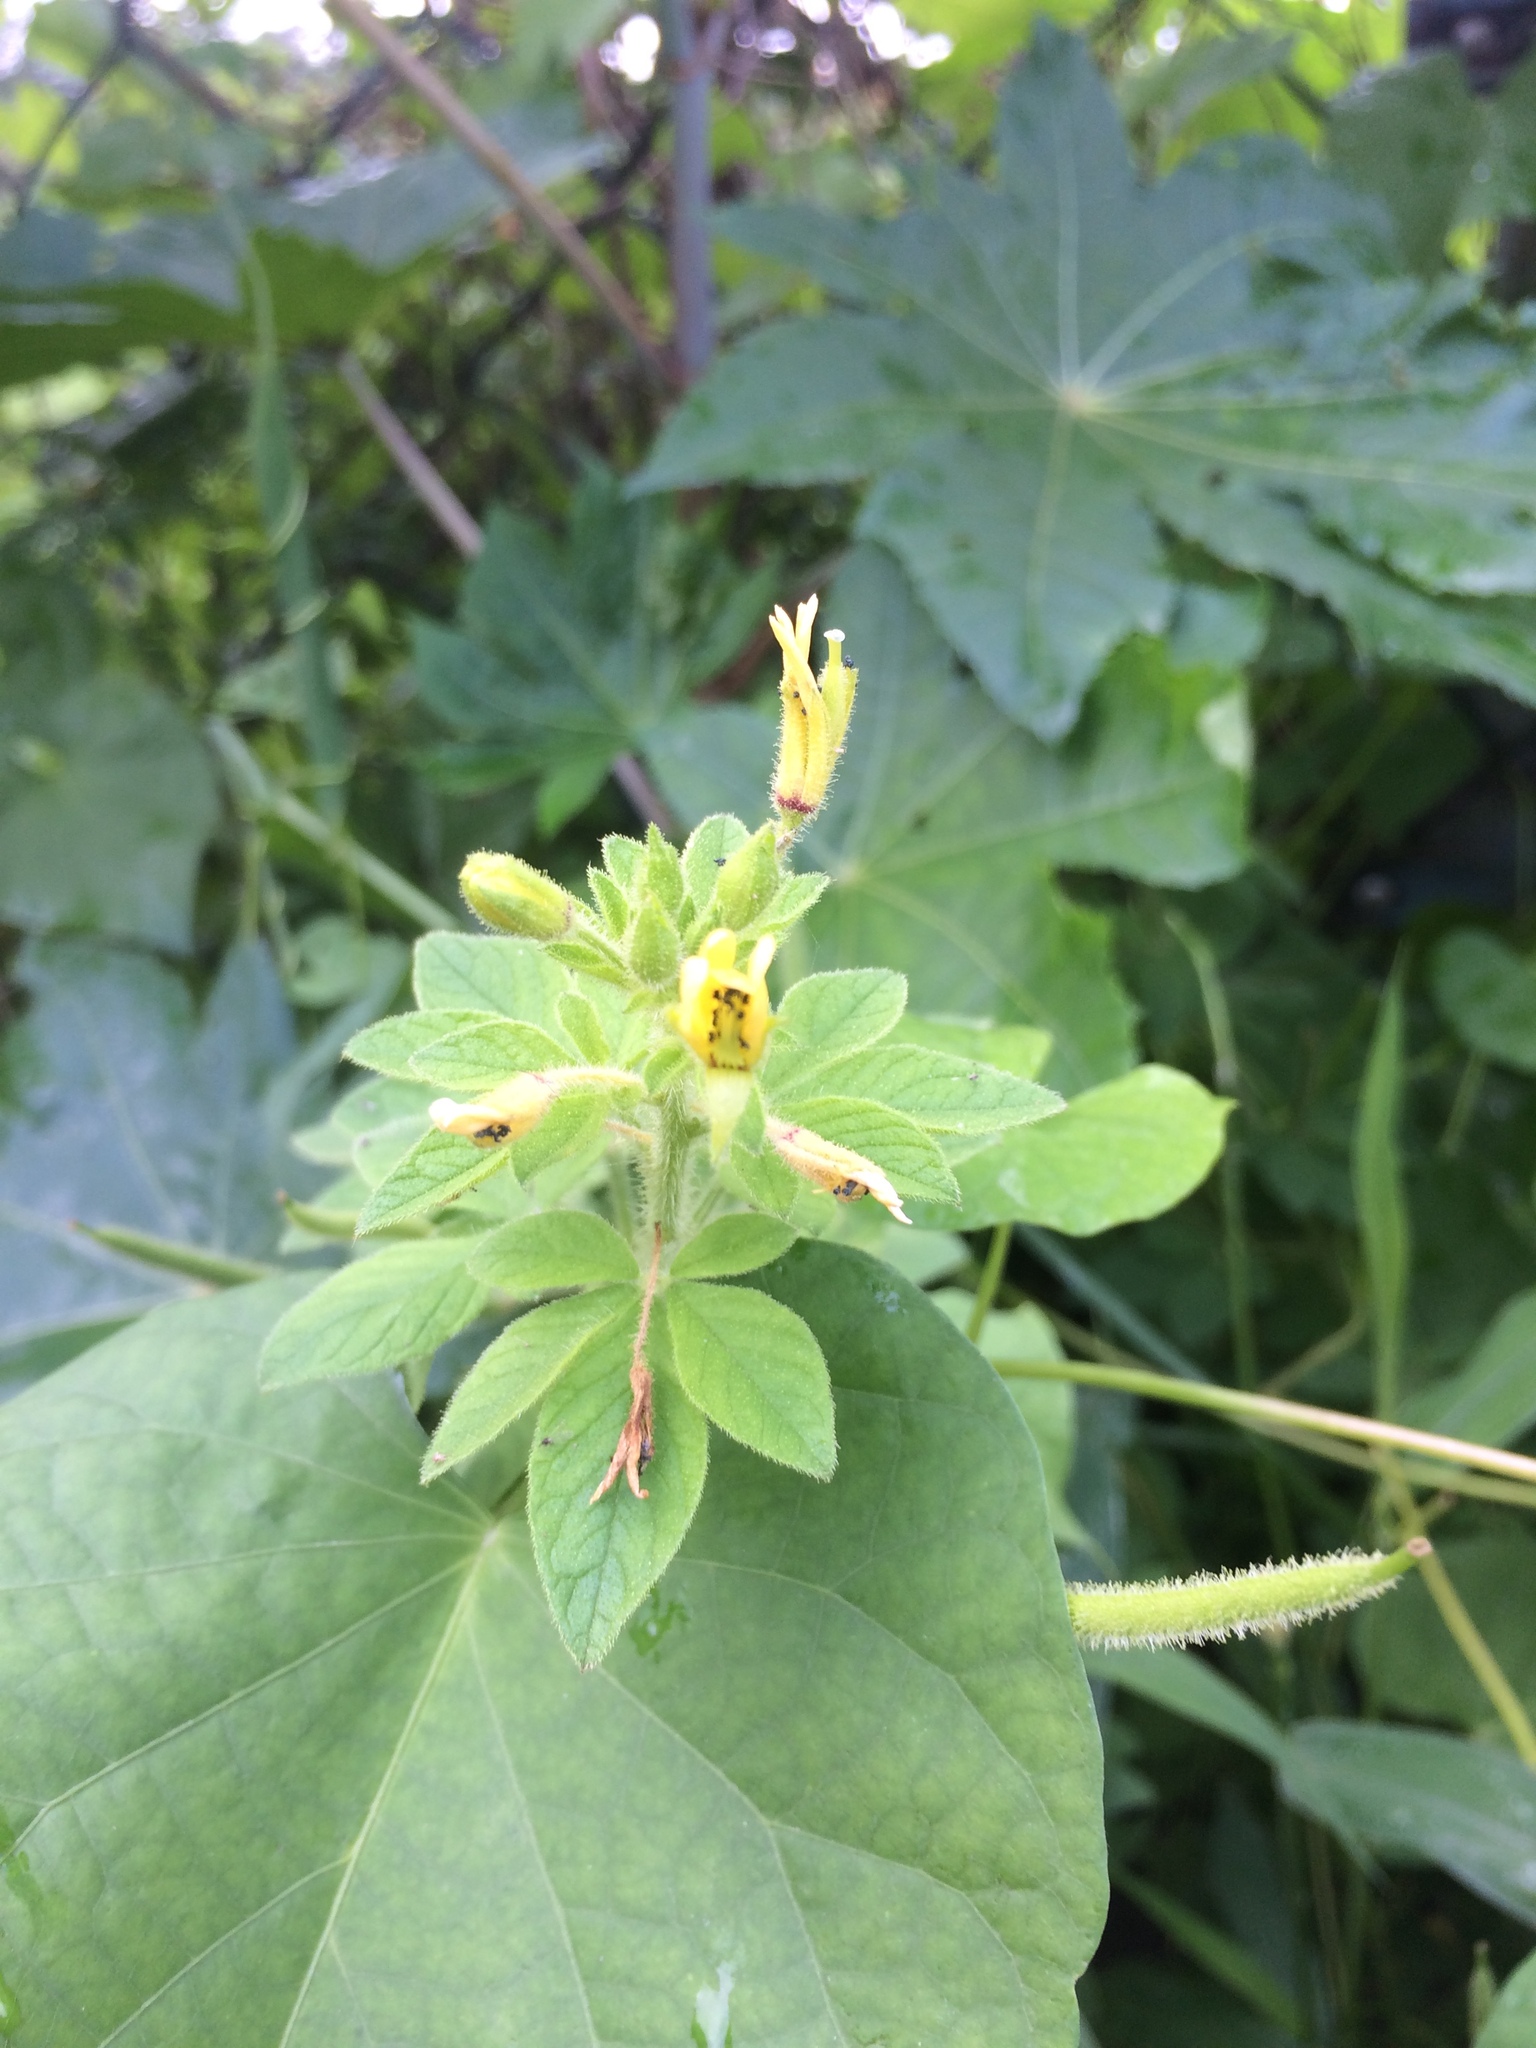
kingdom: Plantae
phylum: Tracheophyta
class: Magnoliopsida
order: Brassicales
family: Cleomaceae
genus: Arivela
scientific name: Arivela viscosa
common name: Asian spiderflower
